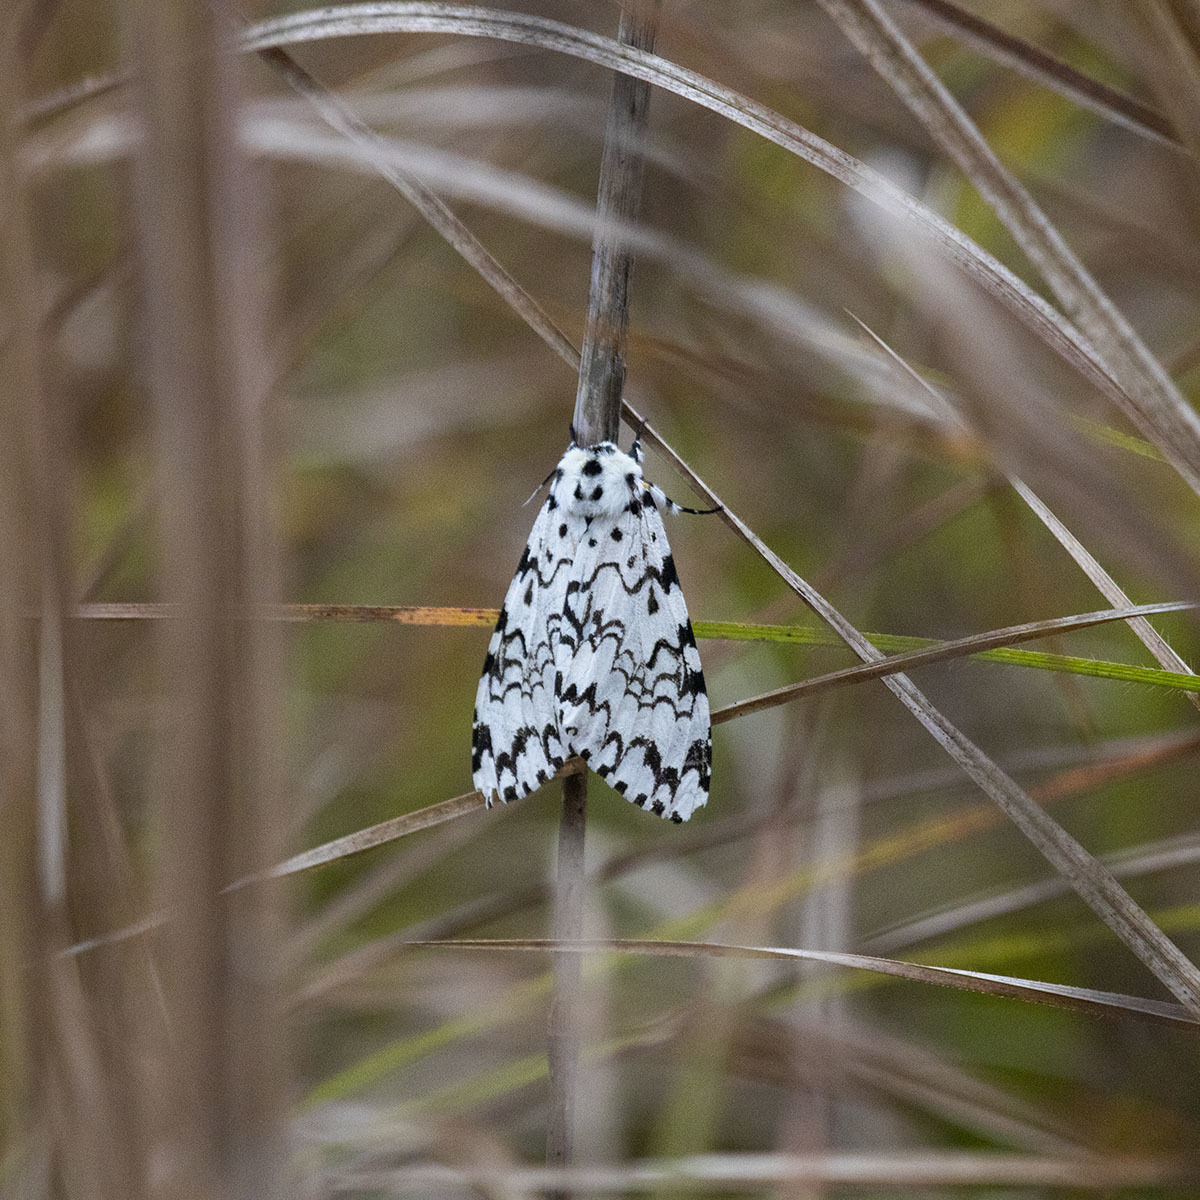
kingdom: Animalia
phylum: Arthropoda
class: Insecta
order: Lepidoptera
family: Erebidae
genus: Lymantria
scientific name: Lymantria concolor
